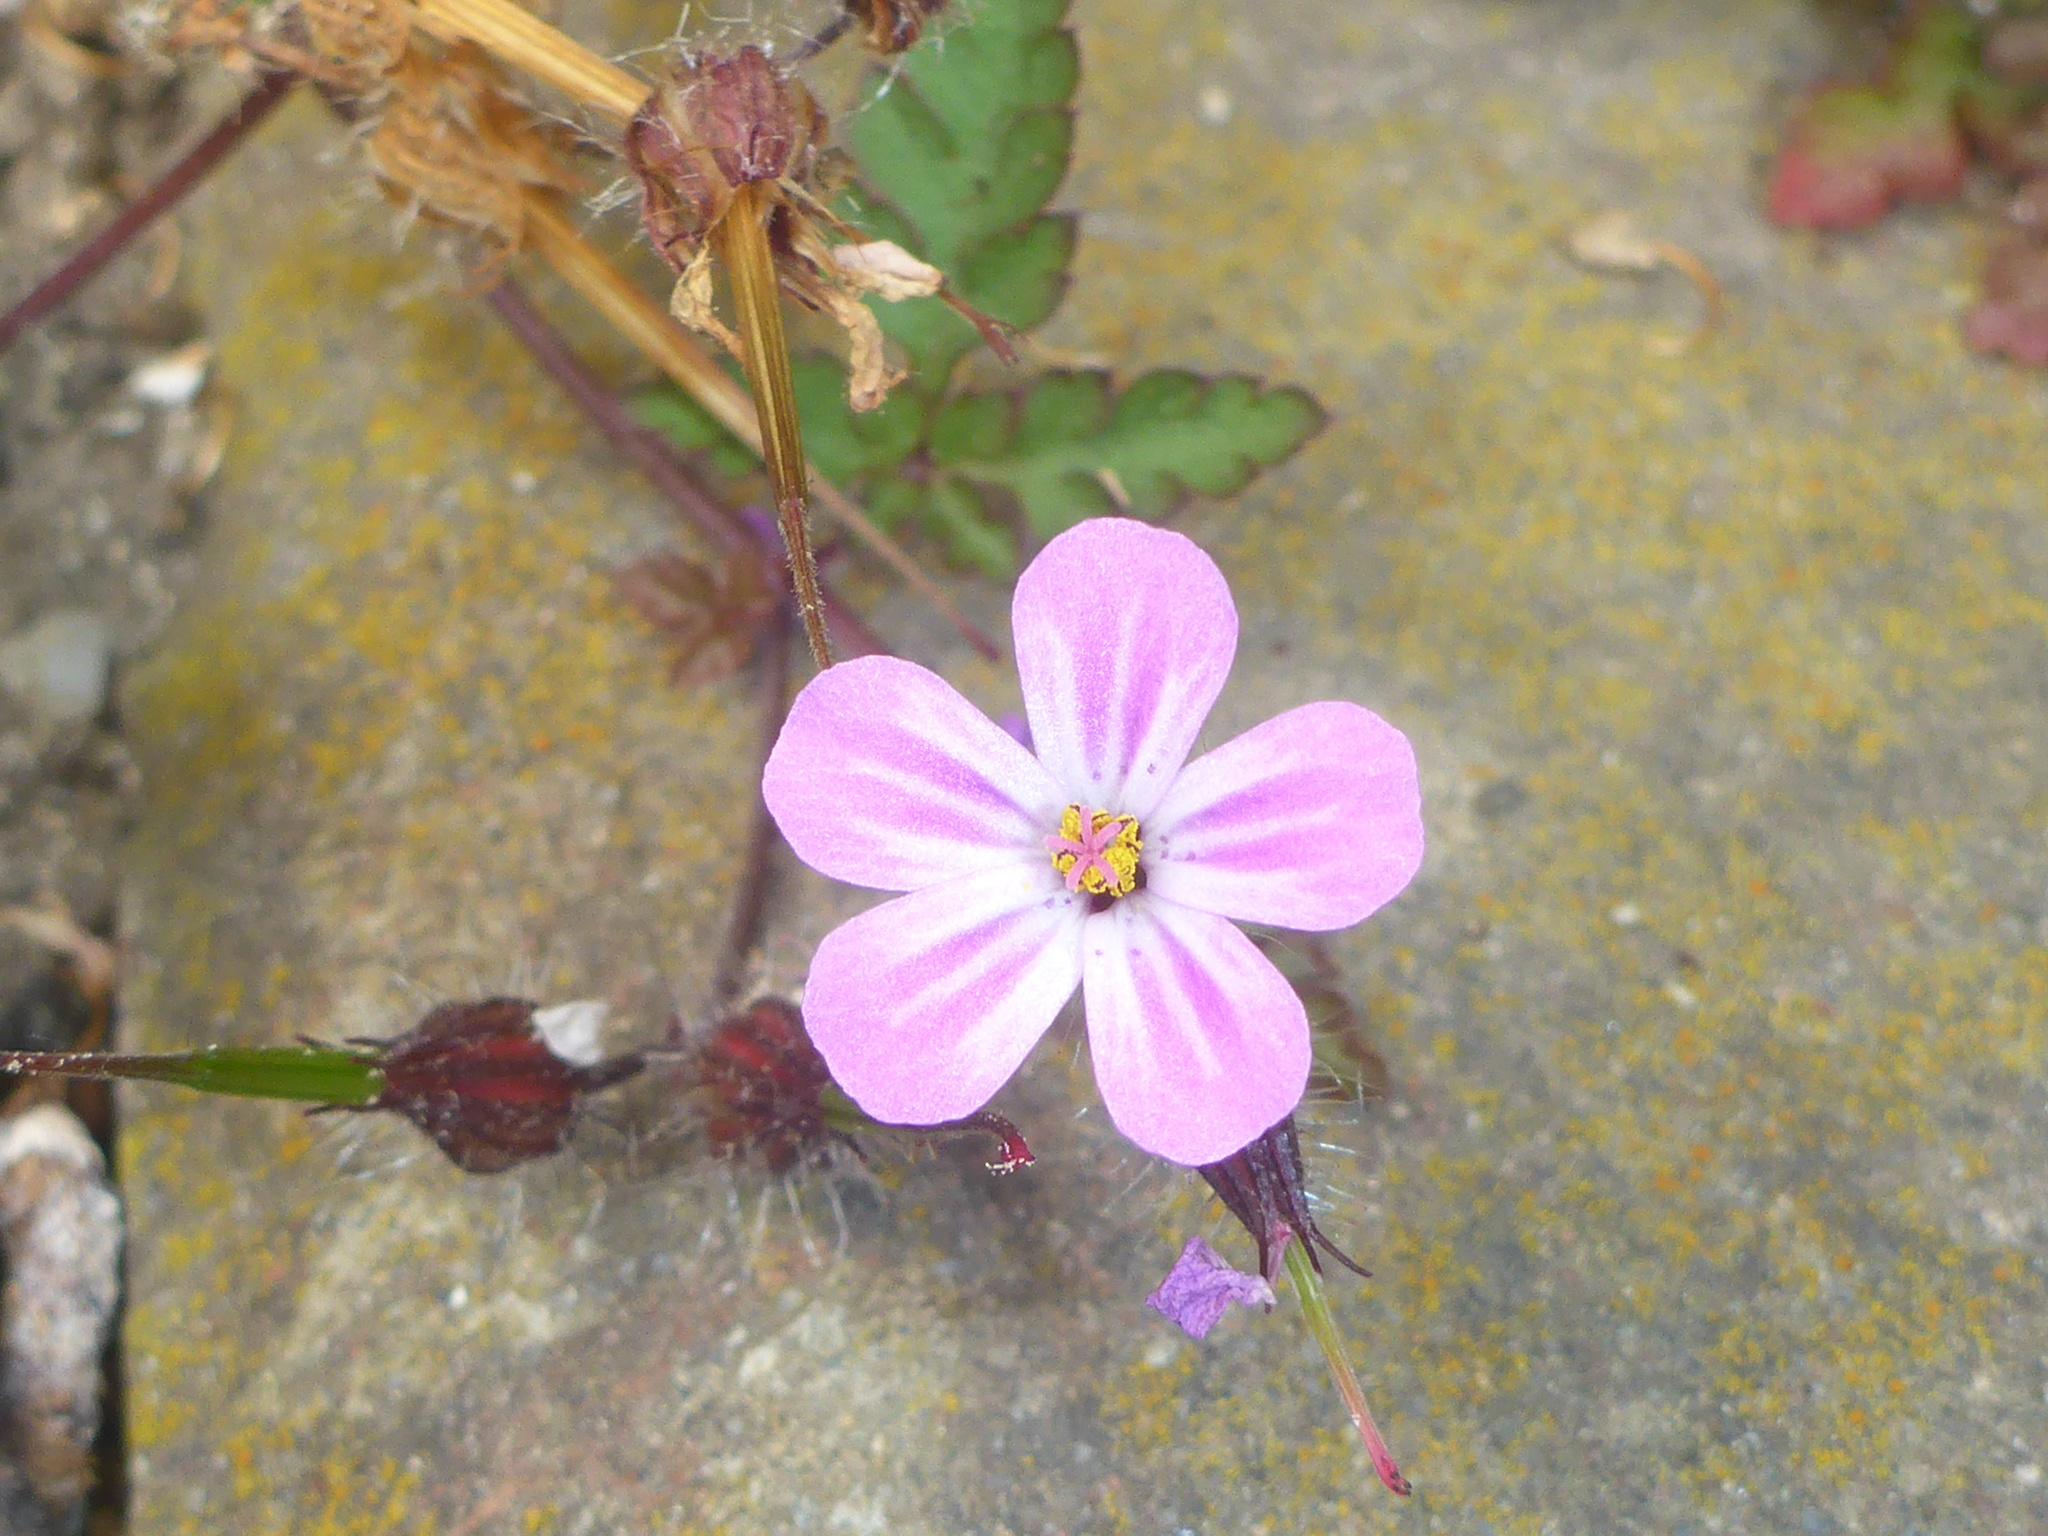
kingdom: Plantae
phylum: Tracheophyta
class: Magnoliopsida
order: Geraniales
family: Geraniaceae
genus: Geranium
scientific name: Geranium robertianum
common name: Herb-robert
